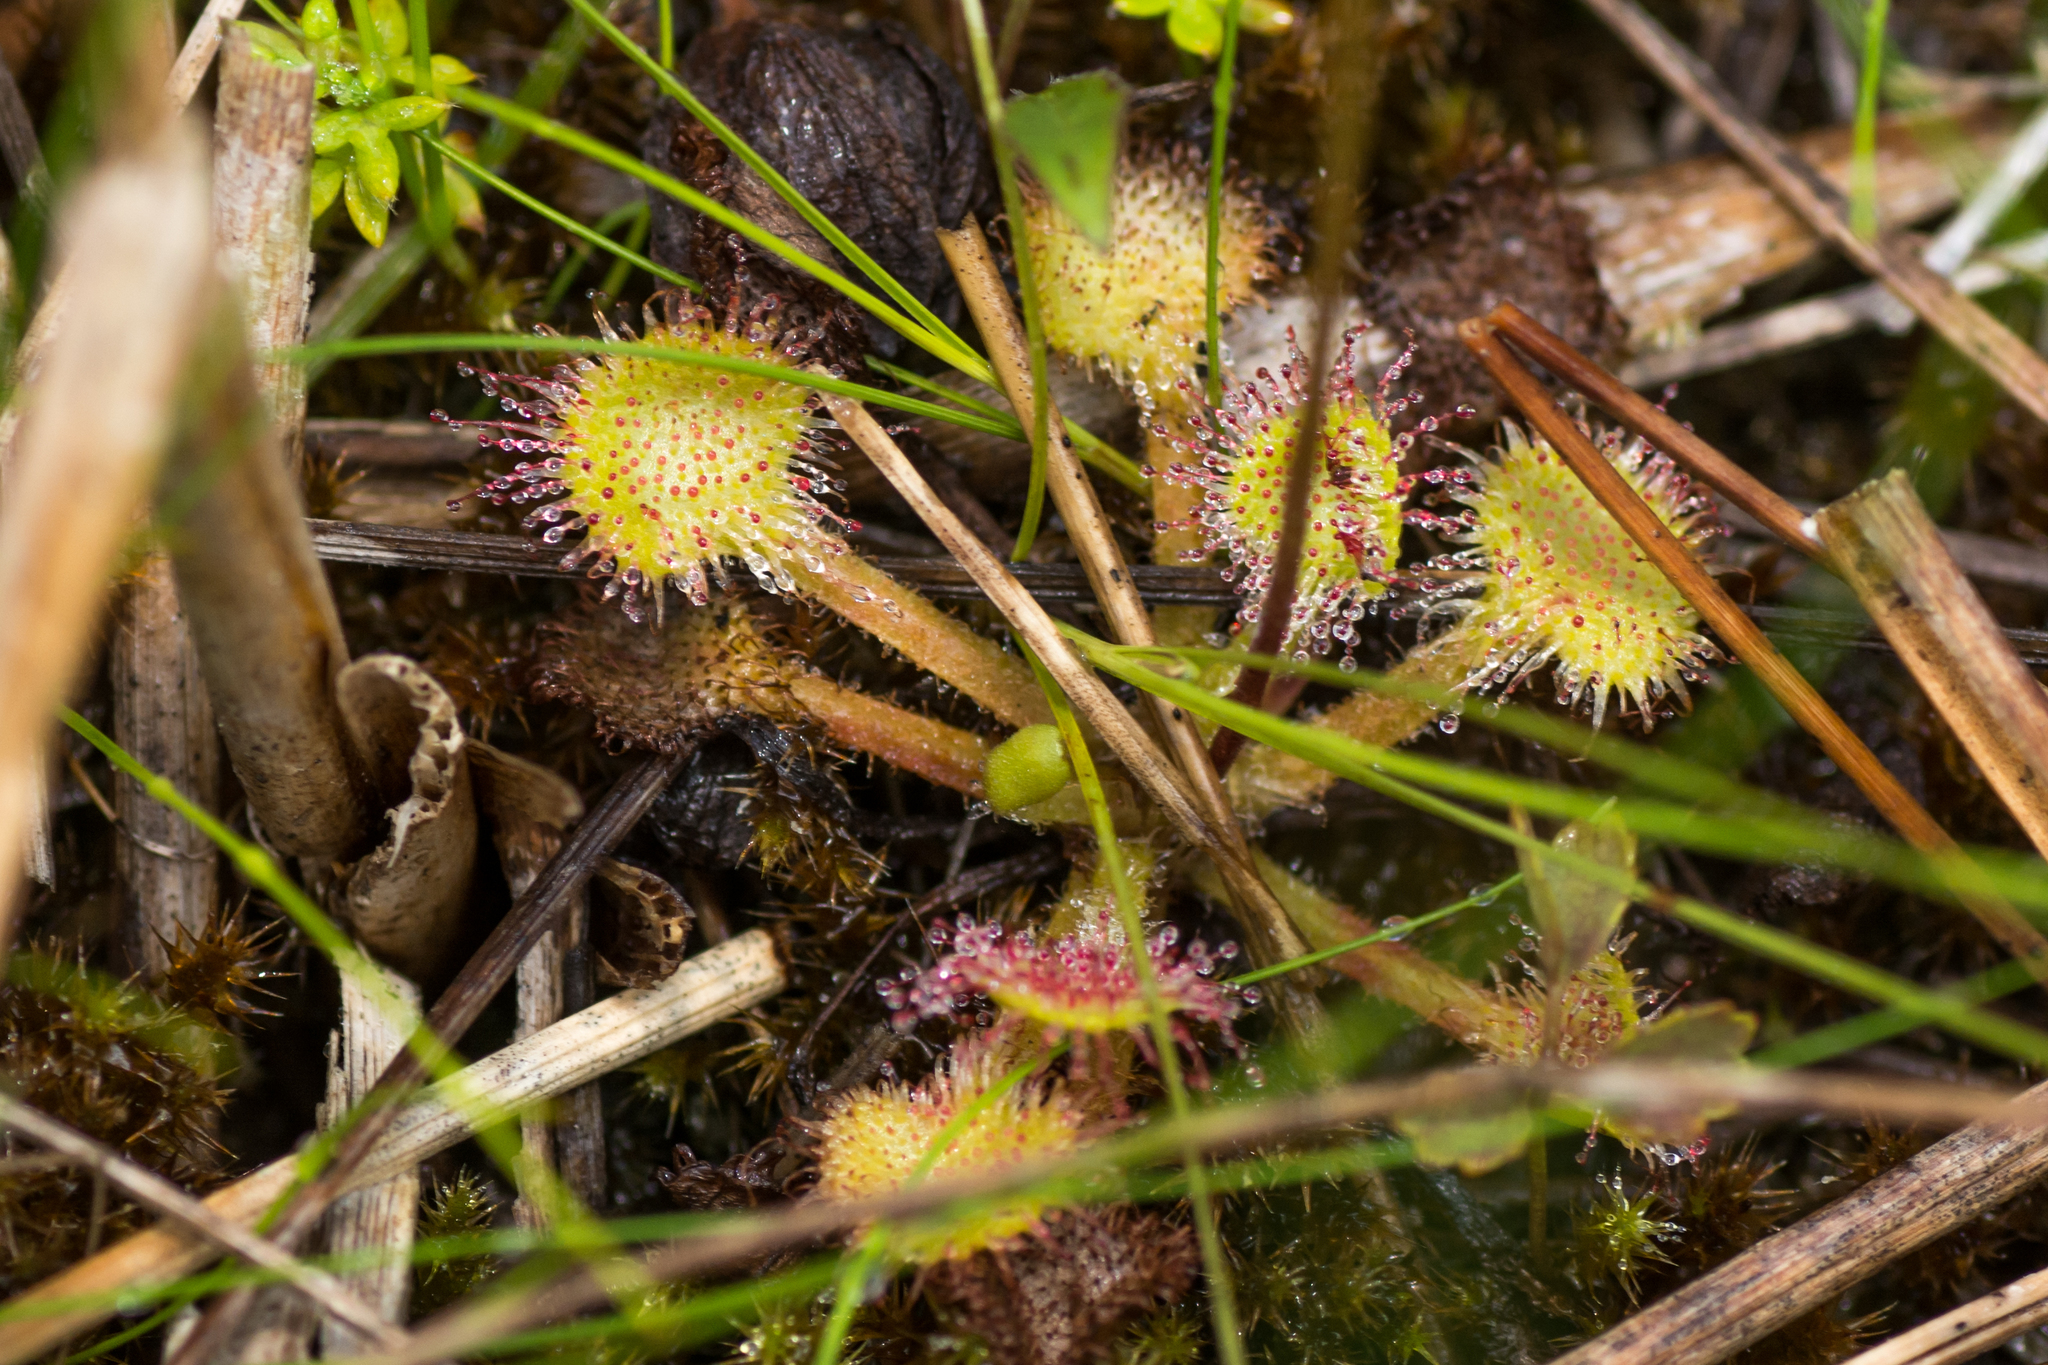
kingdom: Plantae
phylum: Tracheophyta
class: Magnoliopsida
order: Caryophyllales
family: Droseraceae
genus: Drosera
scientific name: Drosera rotundifolia
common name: Round-leaved sundew
